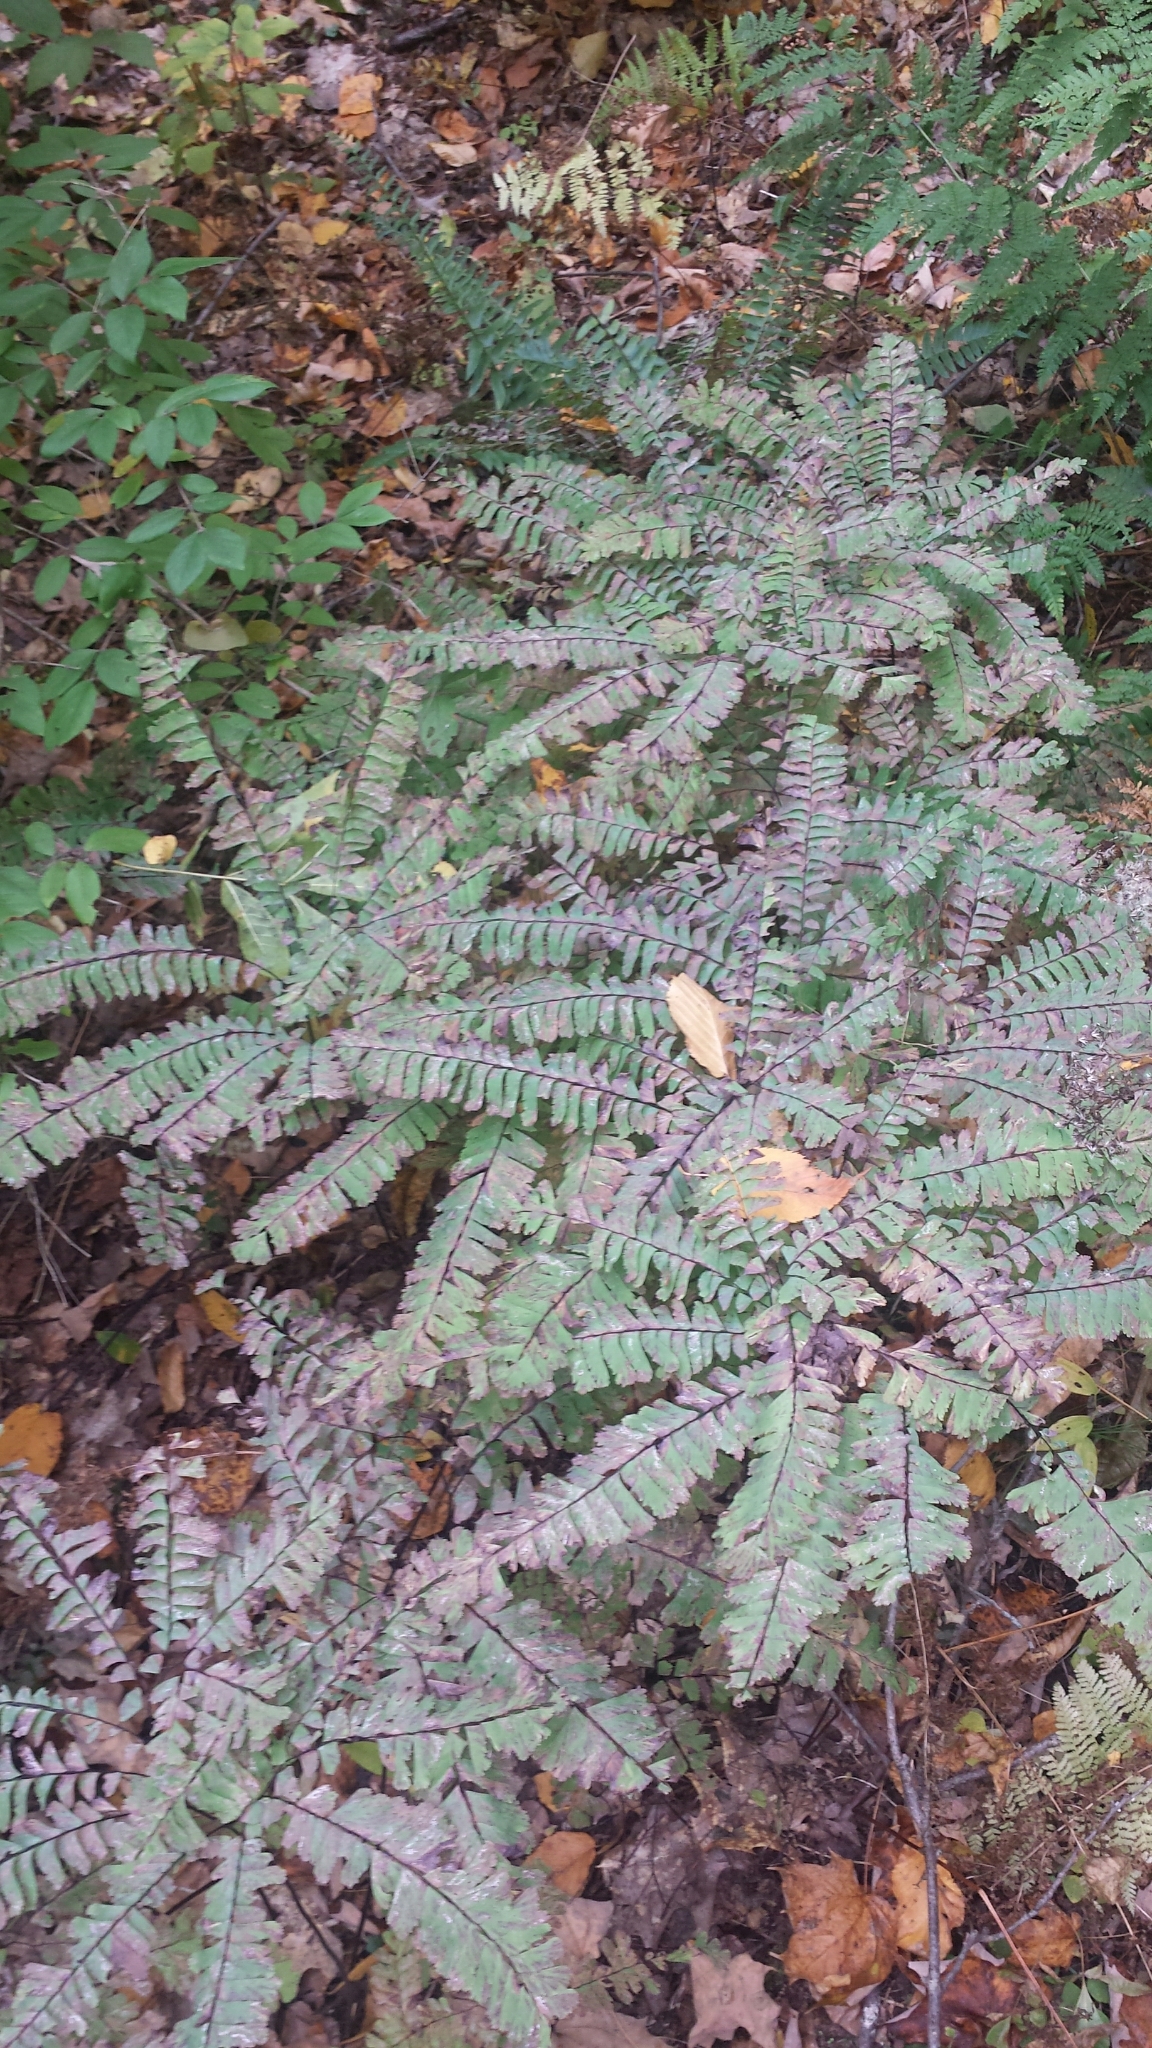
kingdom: Plantae
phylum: Tracheophyta
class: Polypodiopsida
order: Polypodiales
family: Pteridaceae
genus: Adiantum
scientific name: Adiantum pedatum
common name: Five-finger fern
